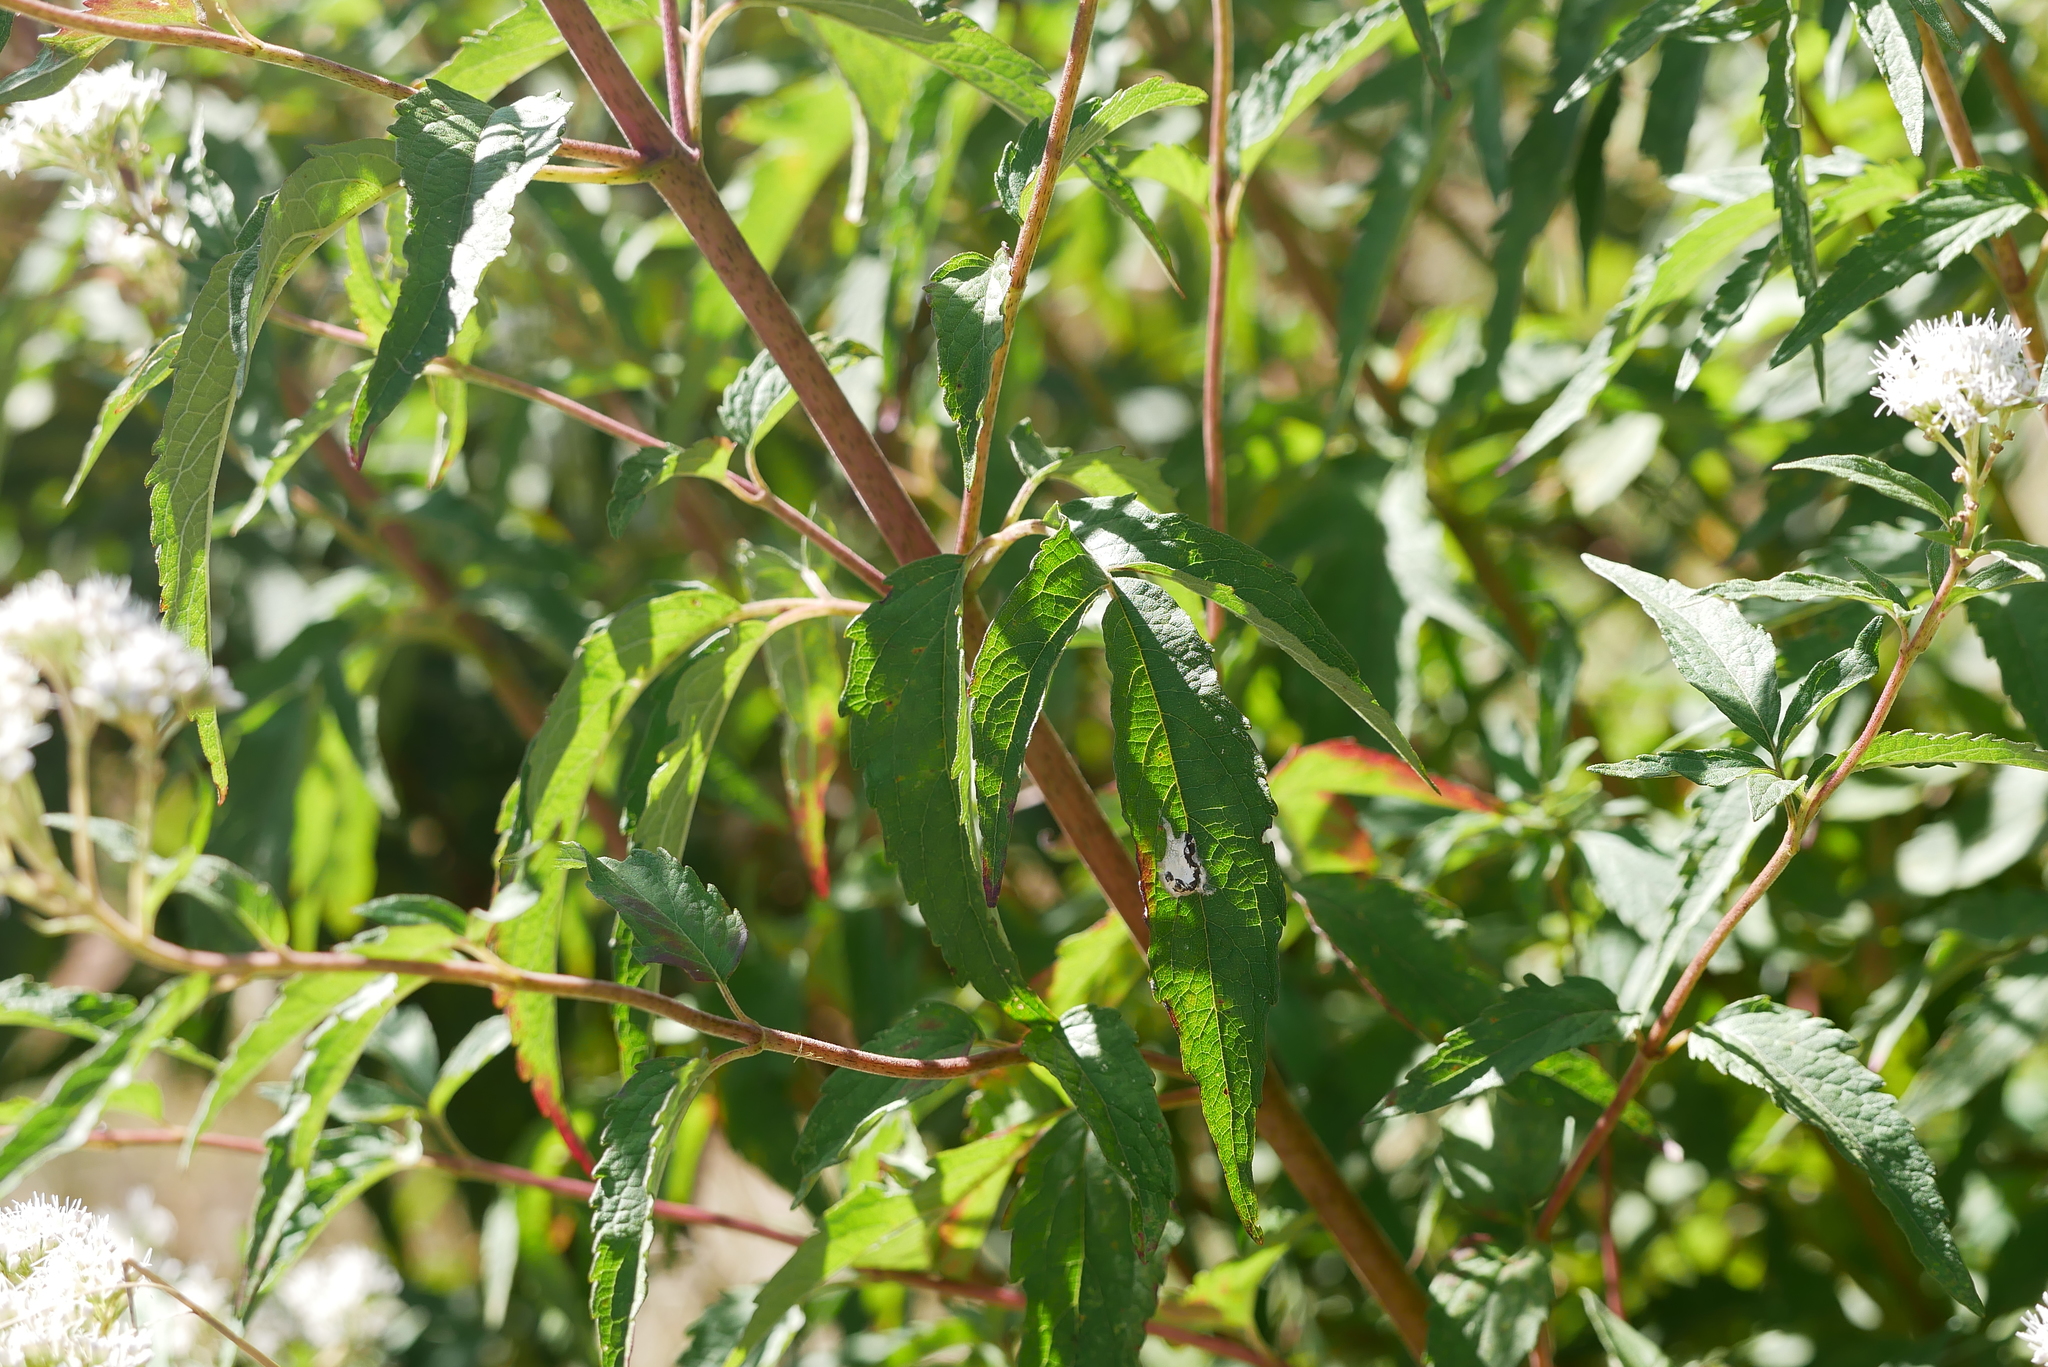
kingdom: Plantae
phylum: Tracheophyta
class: Magnoliopsida
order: Asterales
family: Asteraceae
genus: Eupatorium
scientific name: Eupatorium formosanum
